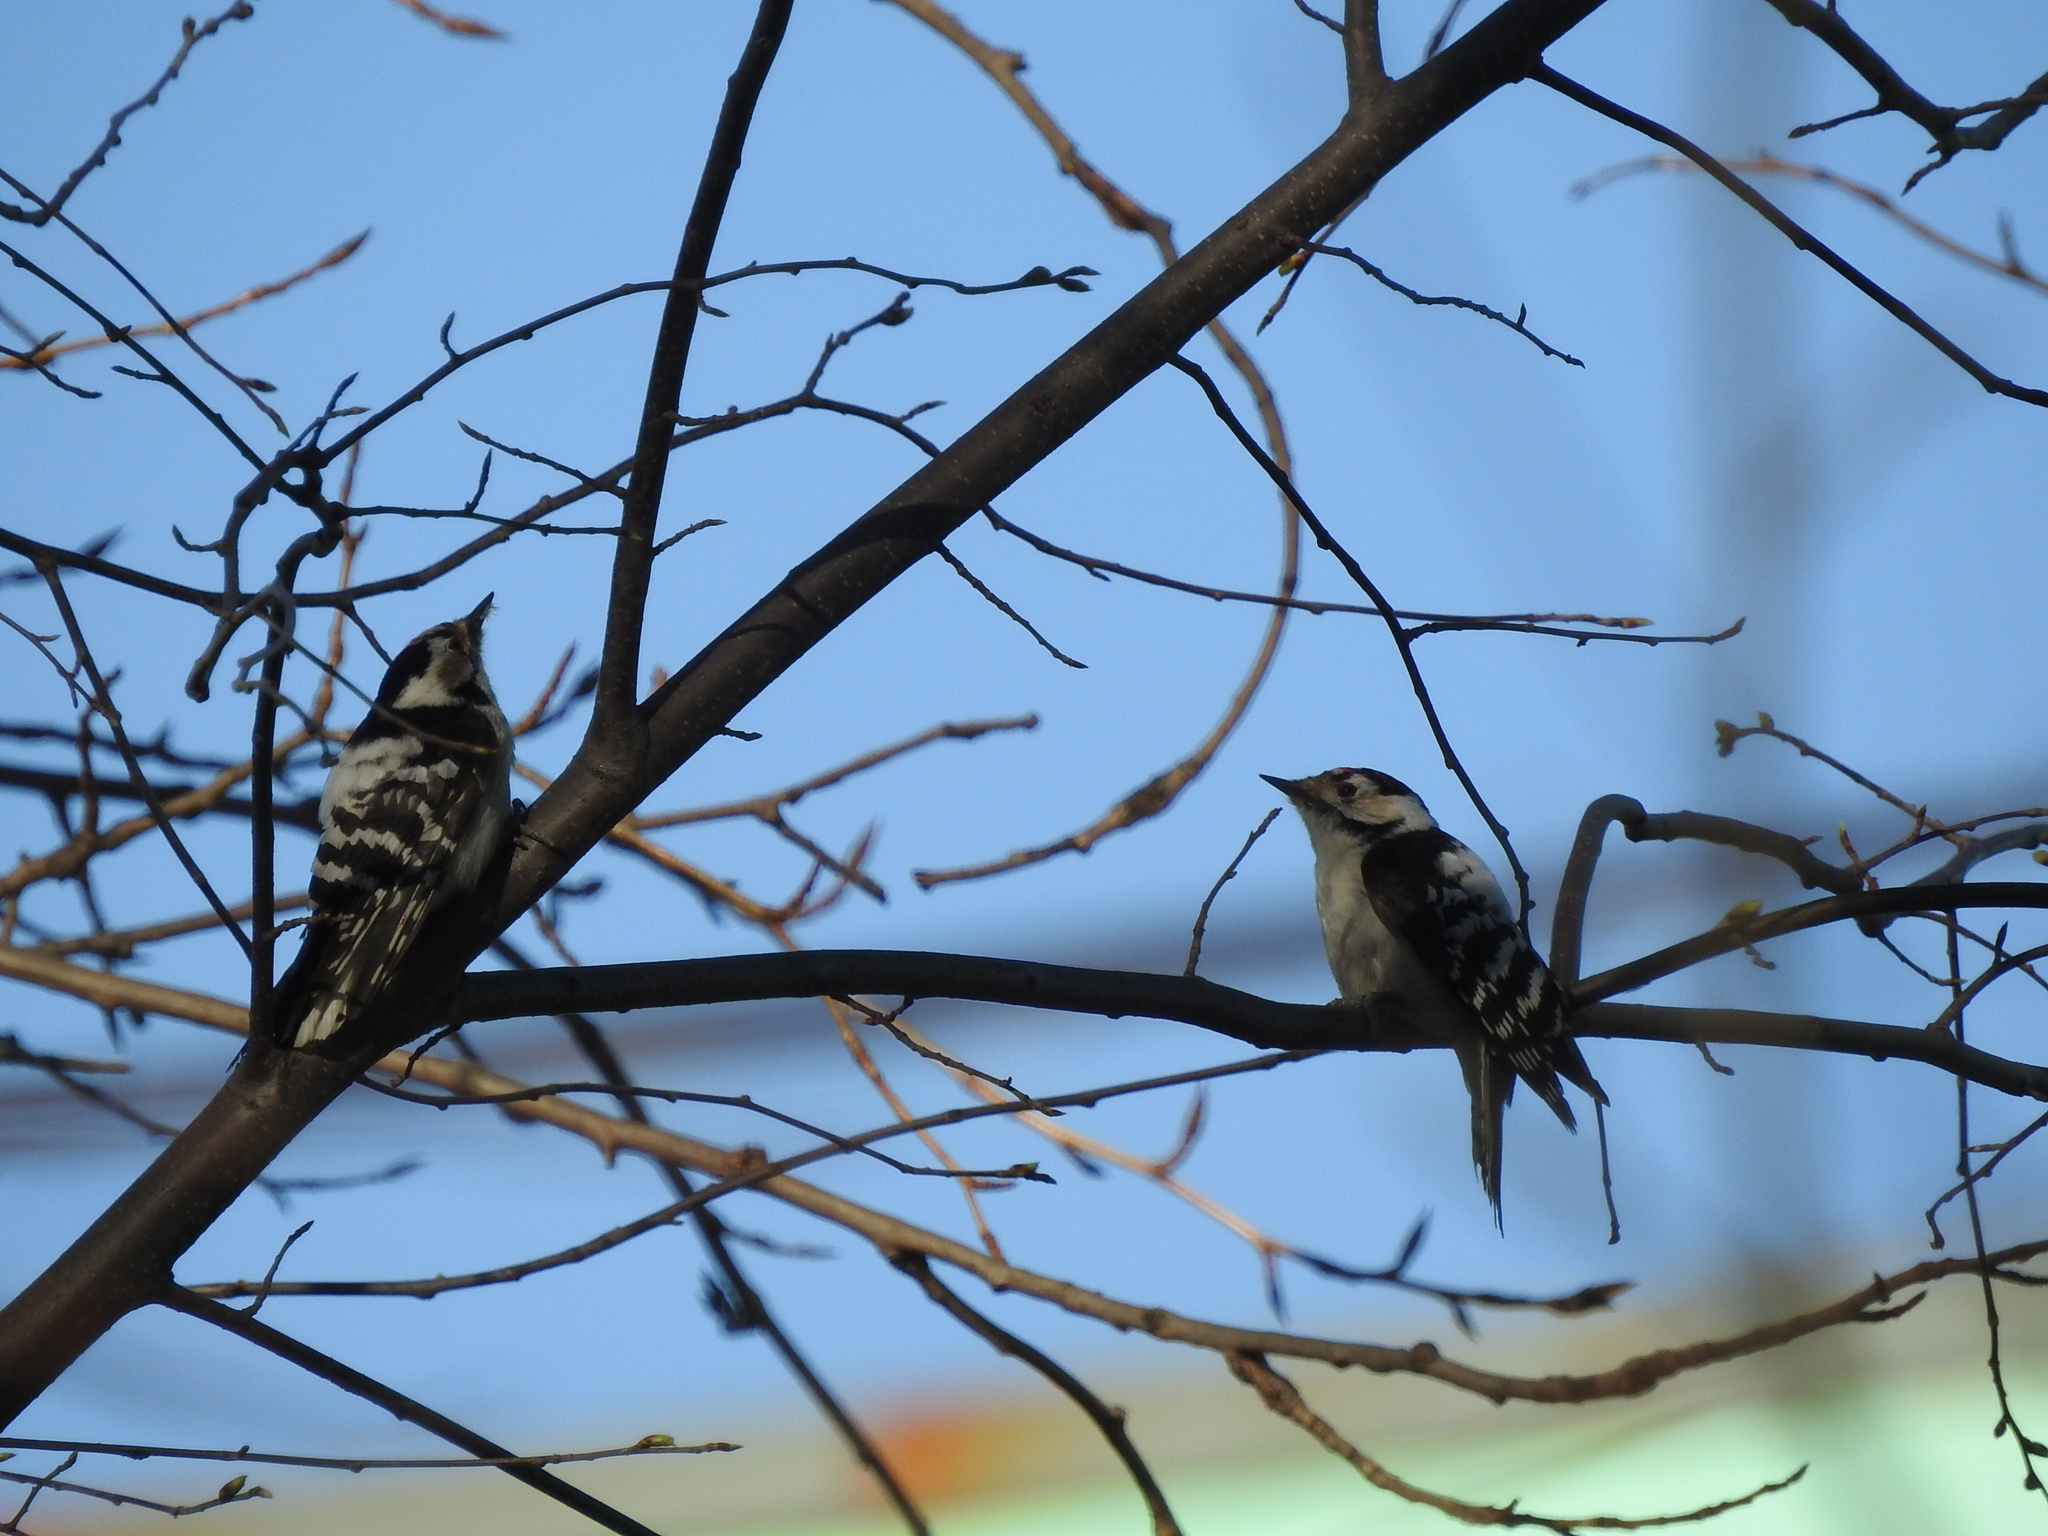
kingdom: Animalia
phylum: Chordata
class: Aves
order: Piciformes
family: Picidae
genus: Dryobates
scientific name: Dryobates minor
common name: Lesser spotted woodpecker
